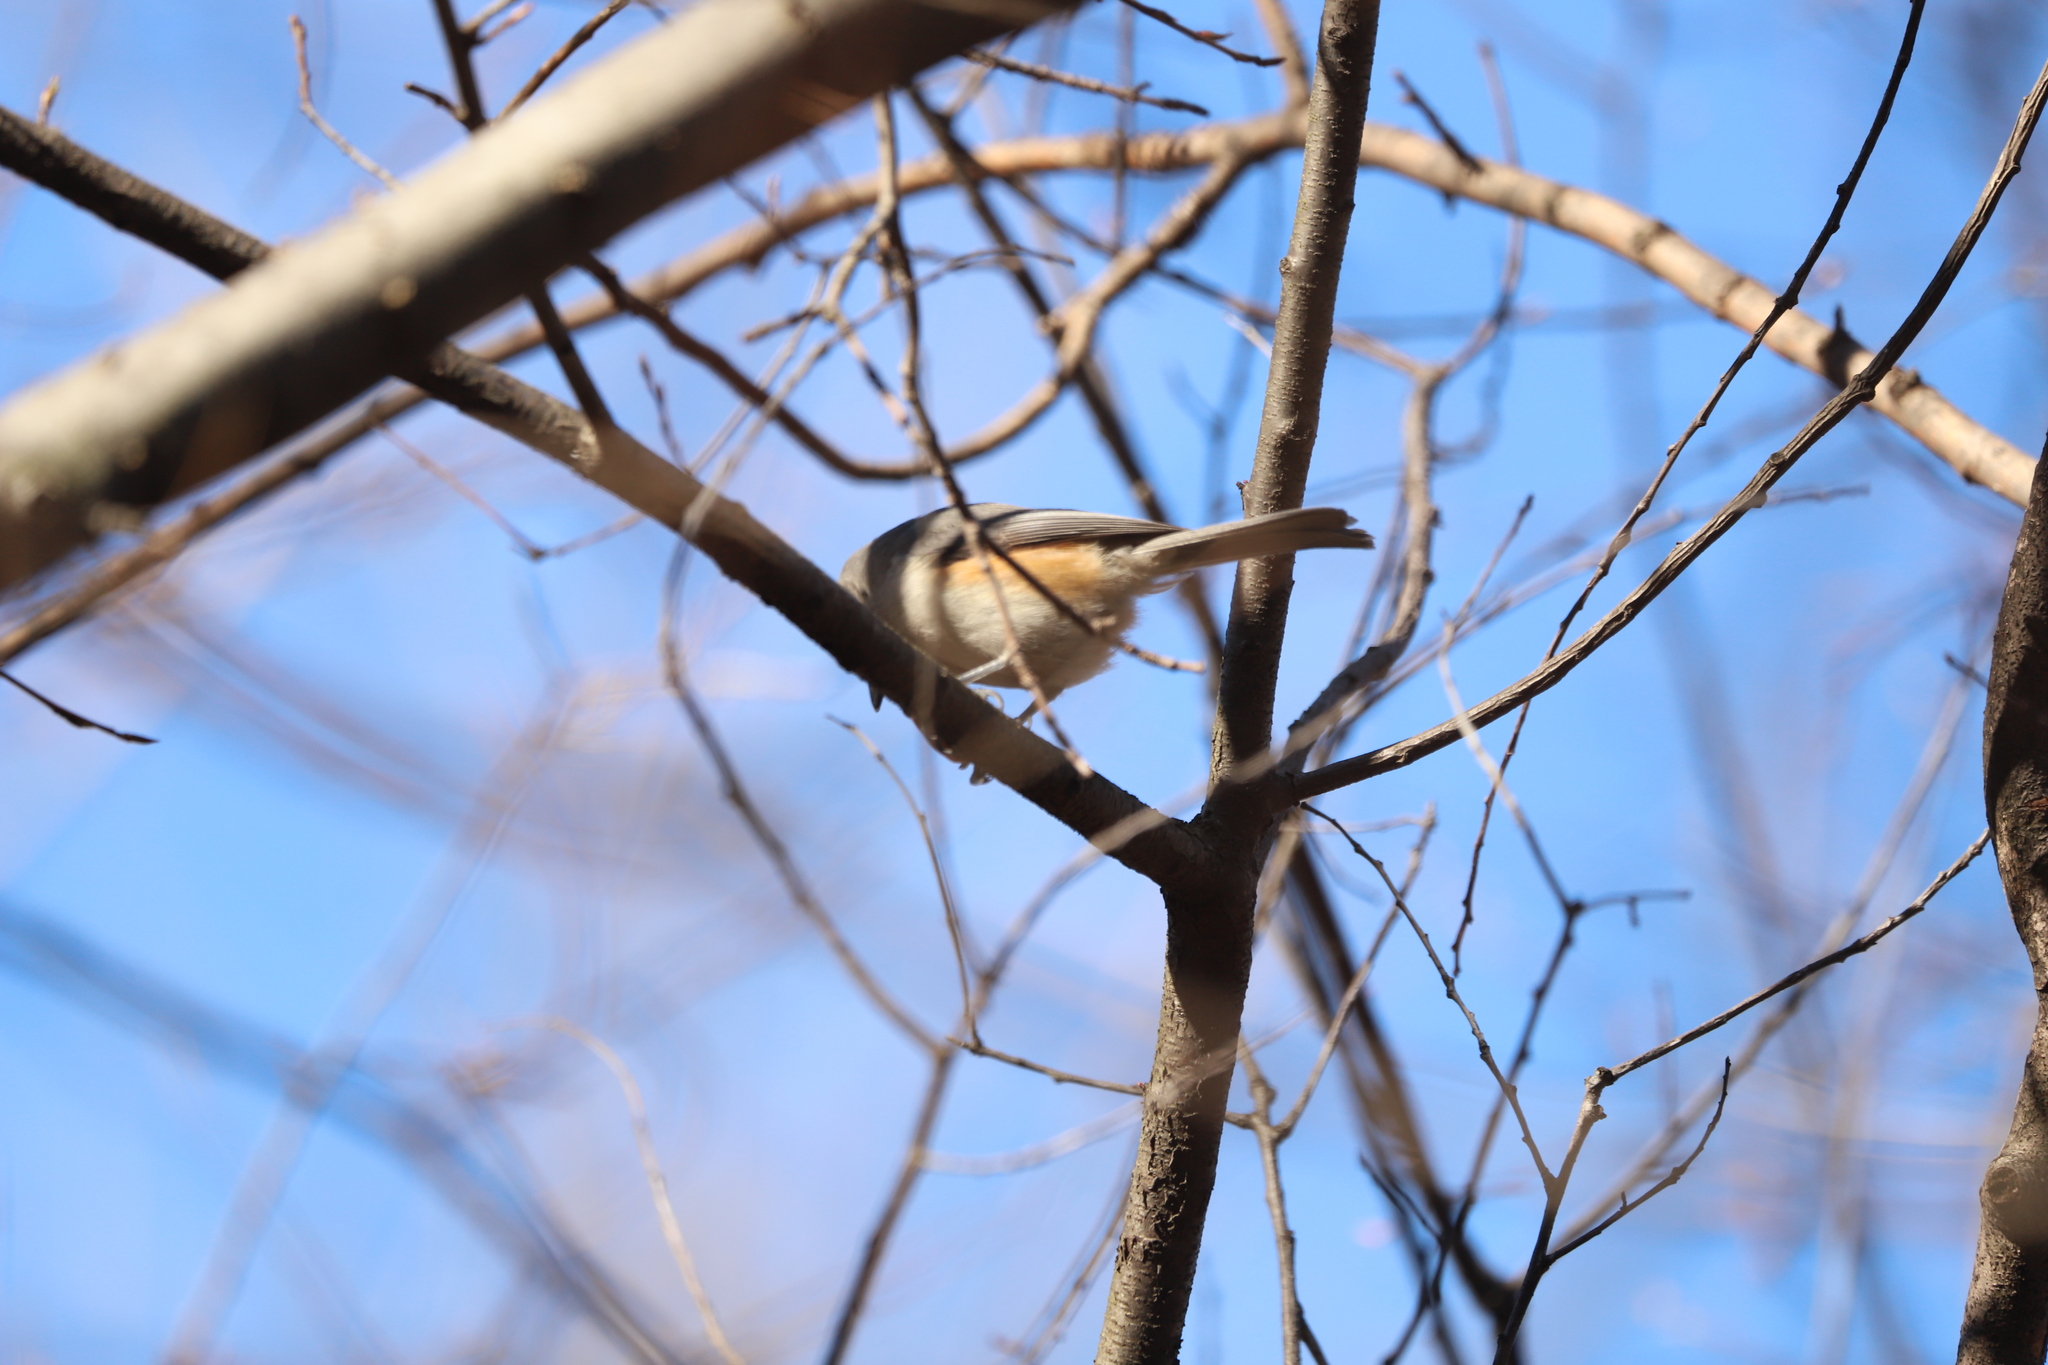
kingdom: Animalia
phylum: Chordata
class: Aves
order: Passeriformes
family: Paridae
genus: Baeolophus
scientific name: Baeolophus bicolor
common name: Tufted titmouse
